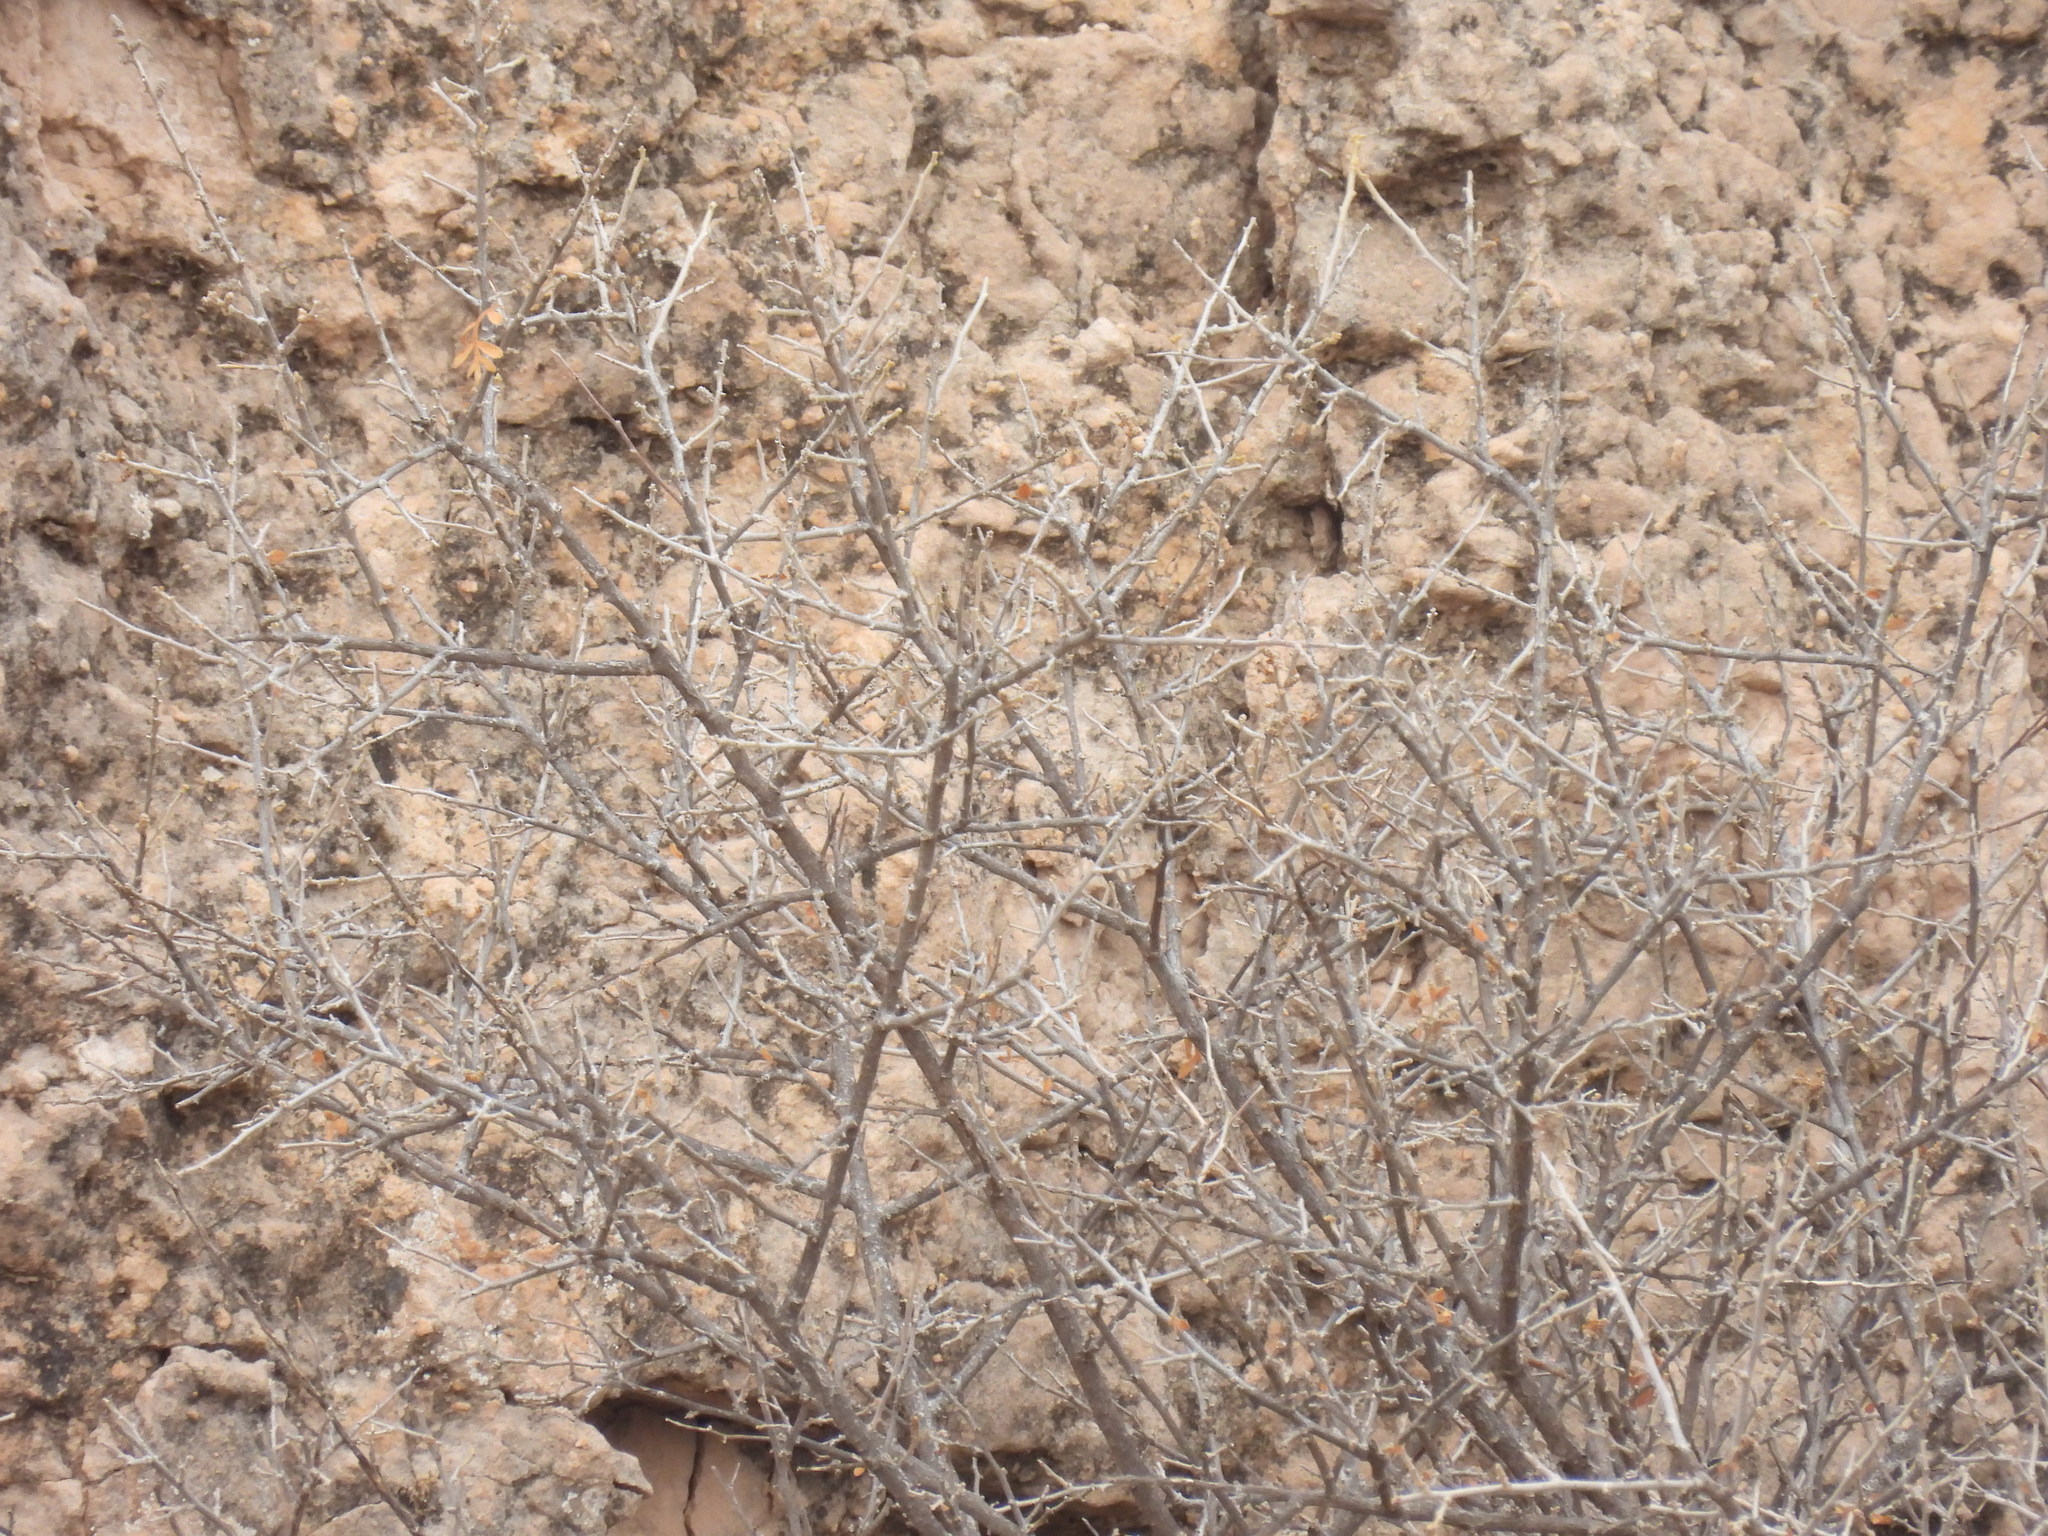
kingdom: Plantae
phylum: Tracheophyta
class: Magnoliopsida
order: Sapindales
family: Anacardiaceae
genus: Rhus
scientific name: Rhus microphylla
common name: Desert sumac
